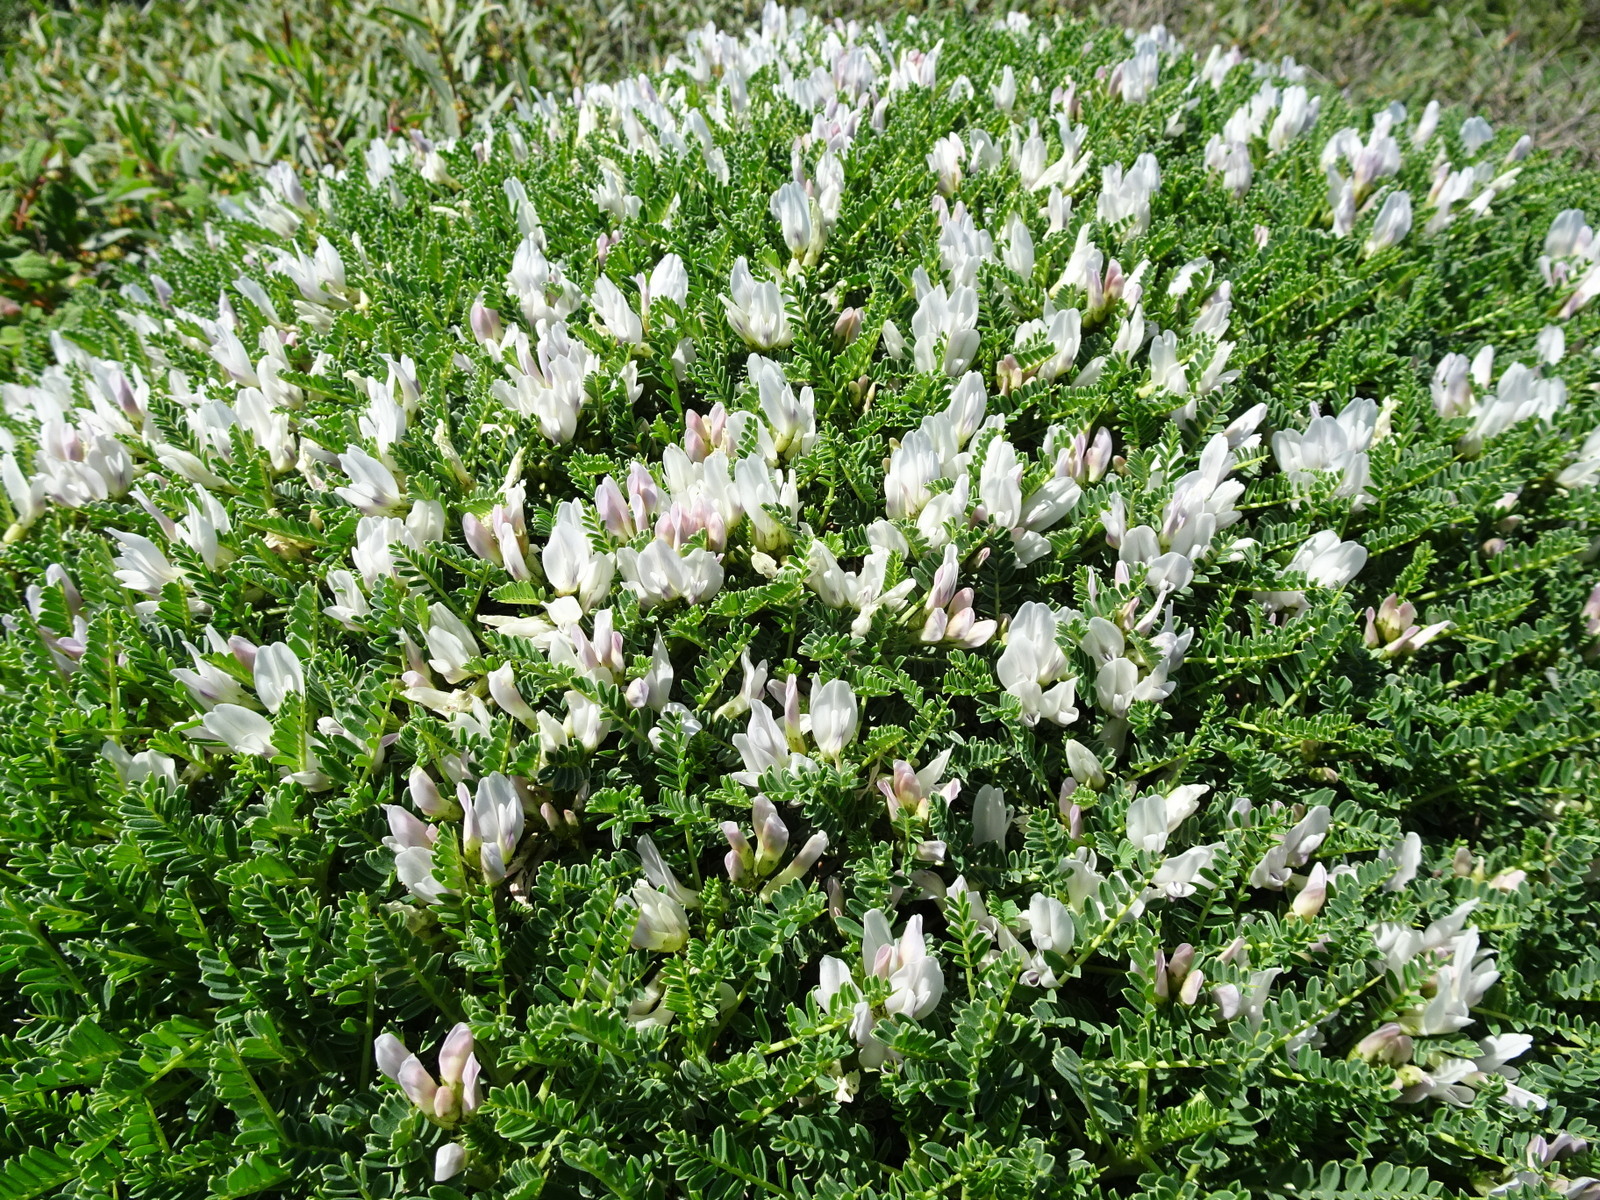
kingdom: Plantae
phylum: Tracheophyta
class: Magnoliopsida
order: Fabales
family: Fabaceae
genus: Astragalus
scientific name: Astragalus tragacantha
